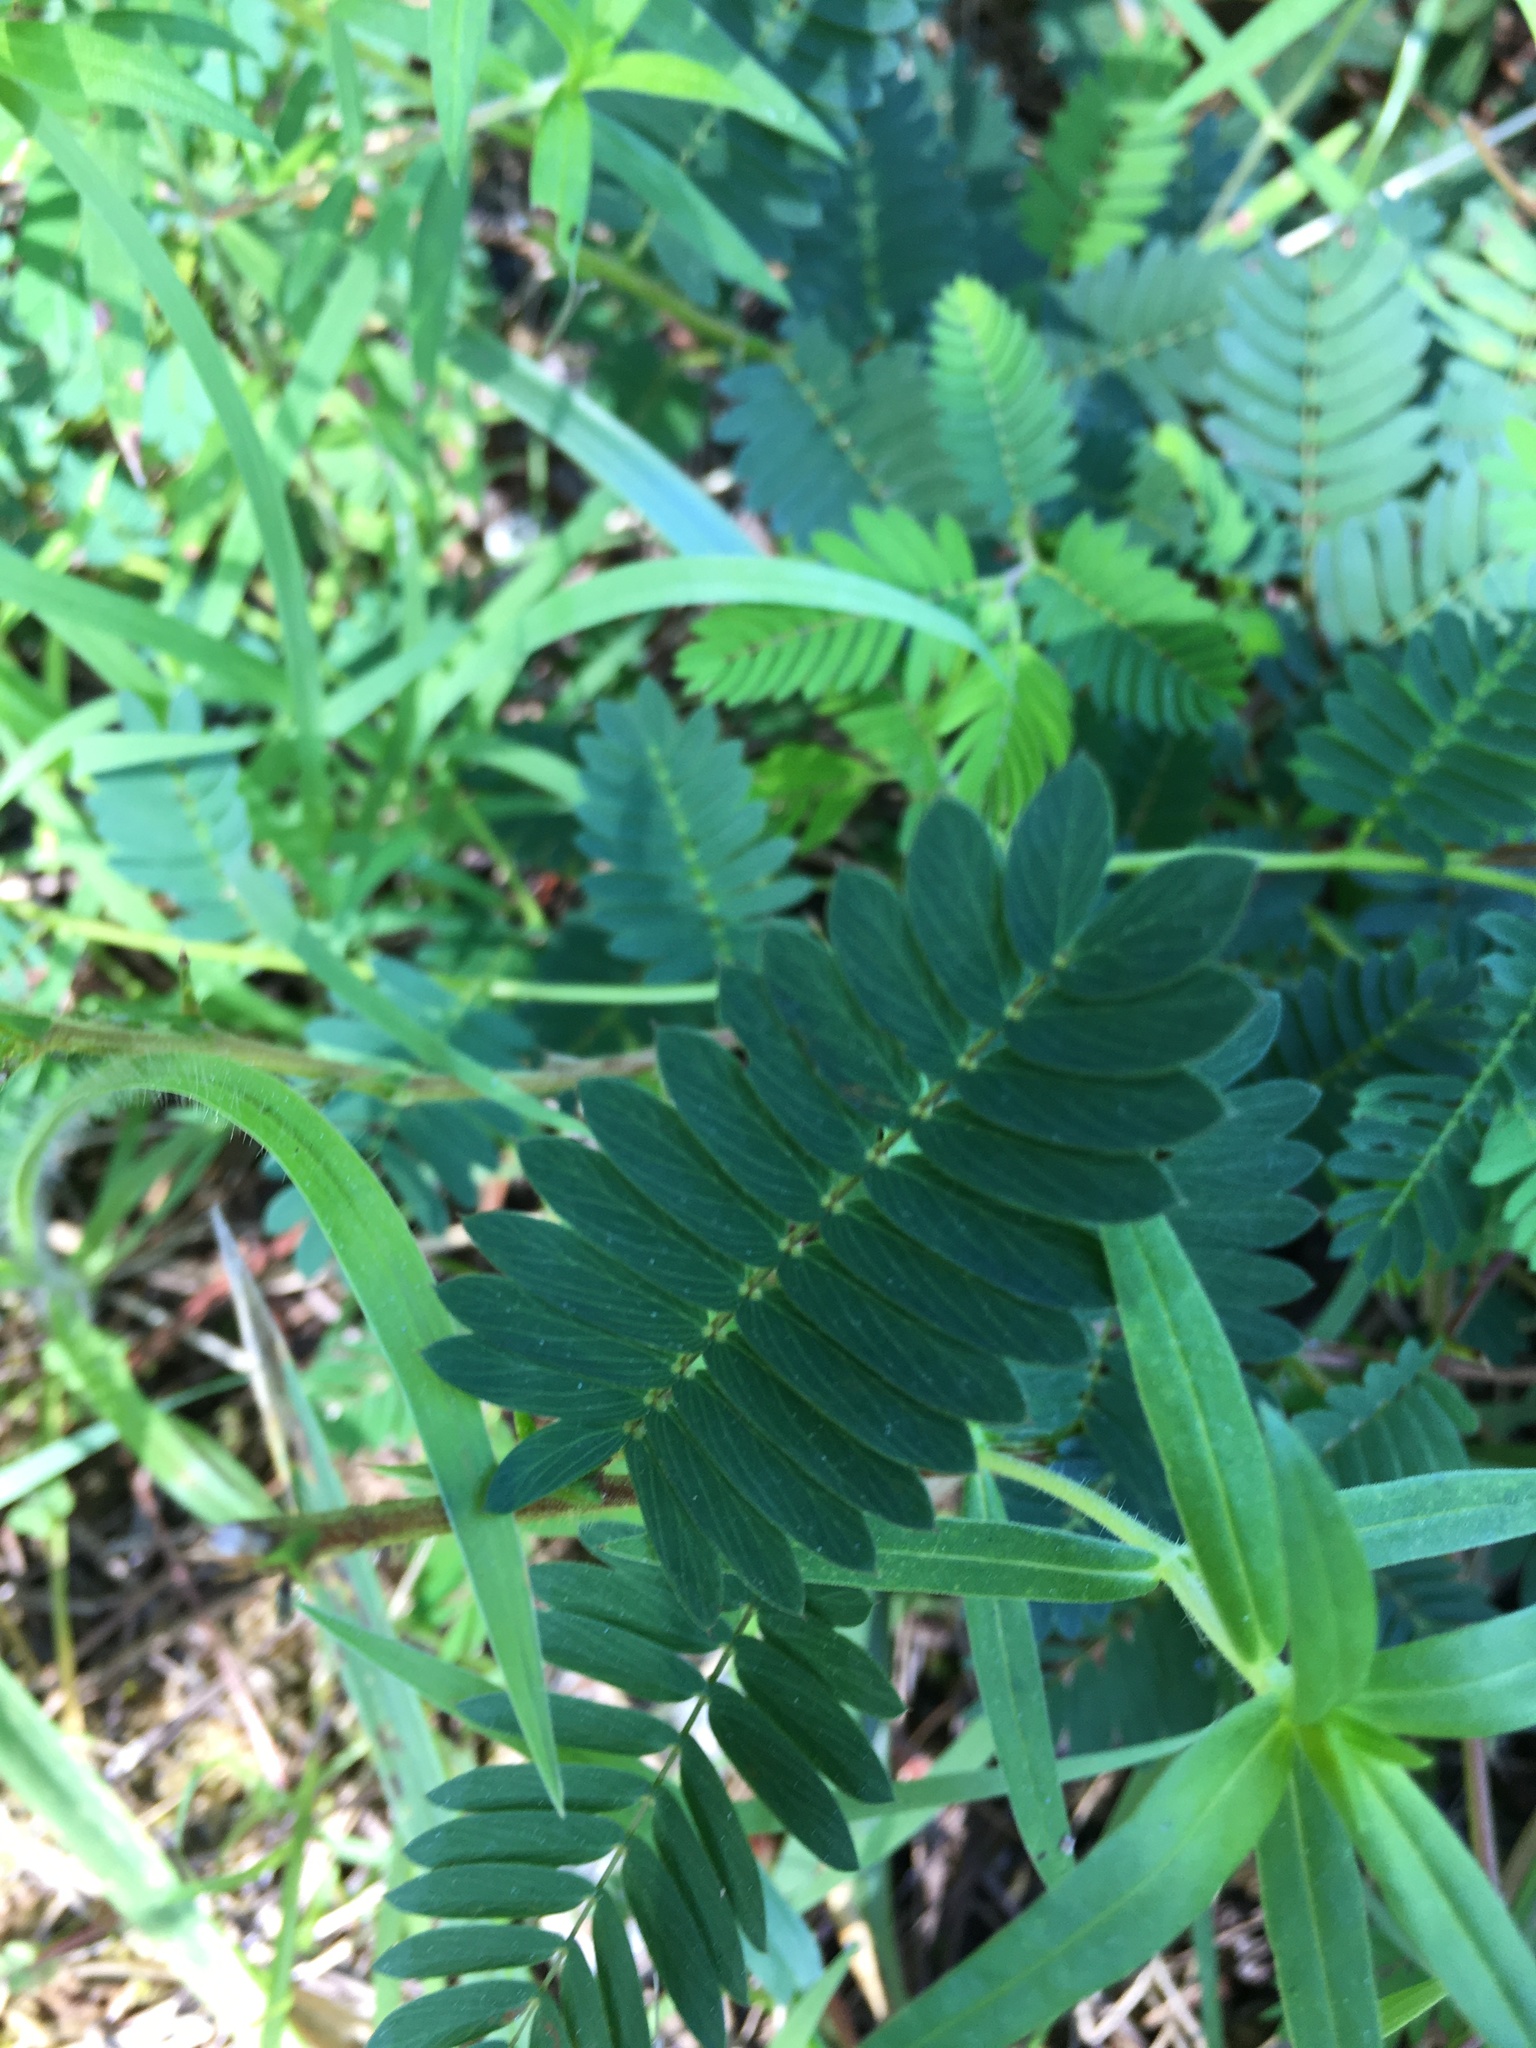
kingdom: Plantae
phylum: Tracheophyta
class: Magnoliopsida
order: Fabales
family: Fabaceae
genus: Chamaecrista
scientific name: Chamaecrista fasciculata
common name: Golden cassia
